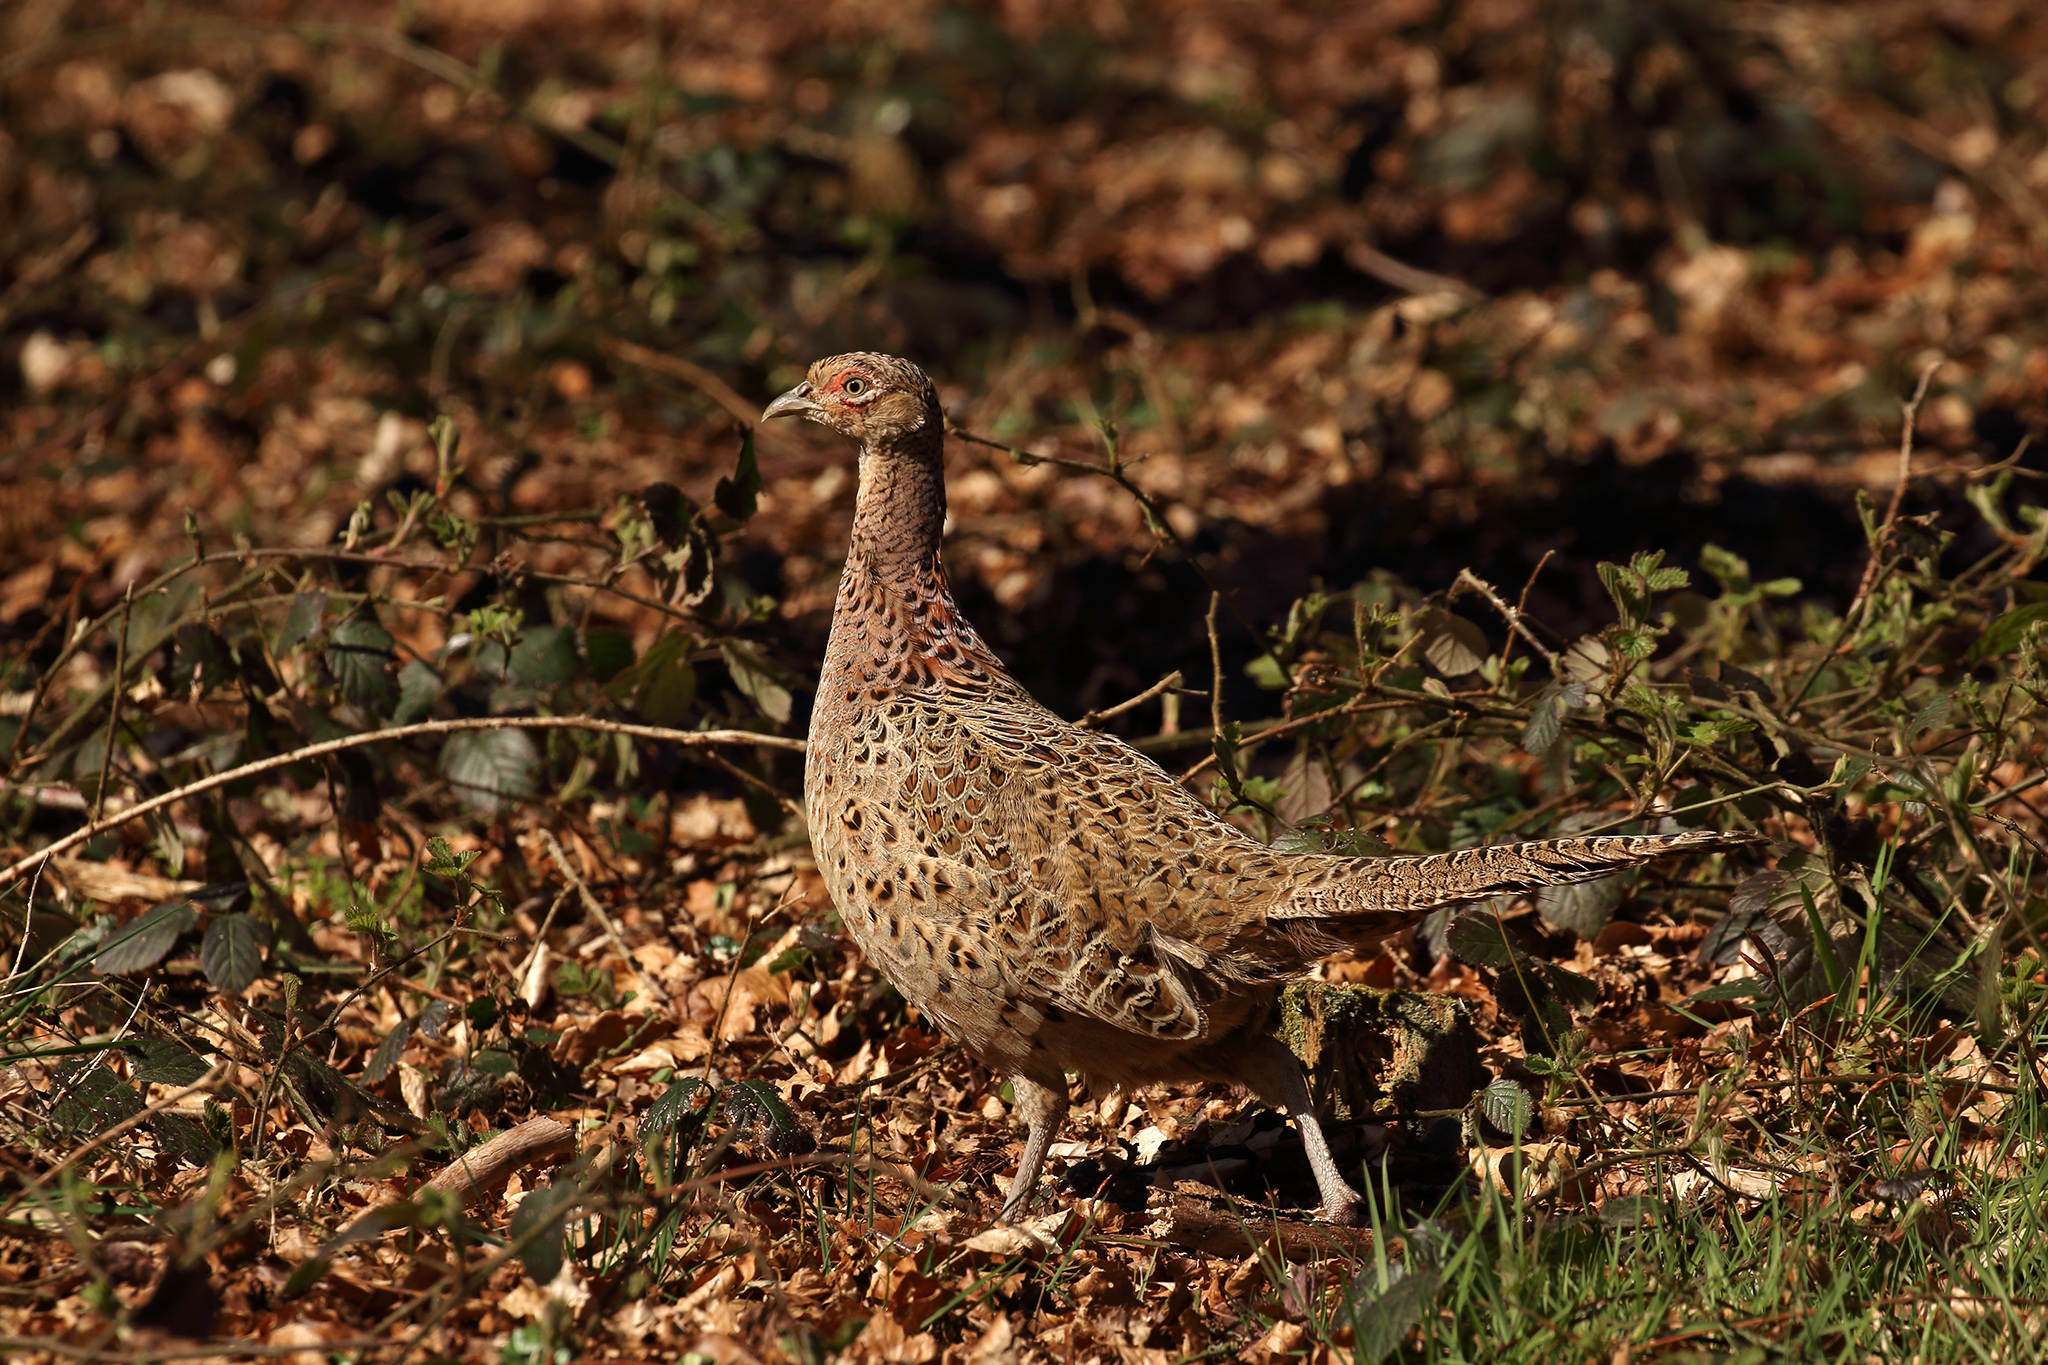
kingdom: Animalia
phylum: Chordata
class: Aves
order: Galliformes
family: Phasianidae
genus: Phasianus
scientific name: Phasianus colchicus
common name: Common pheasant
